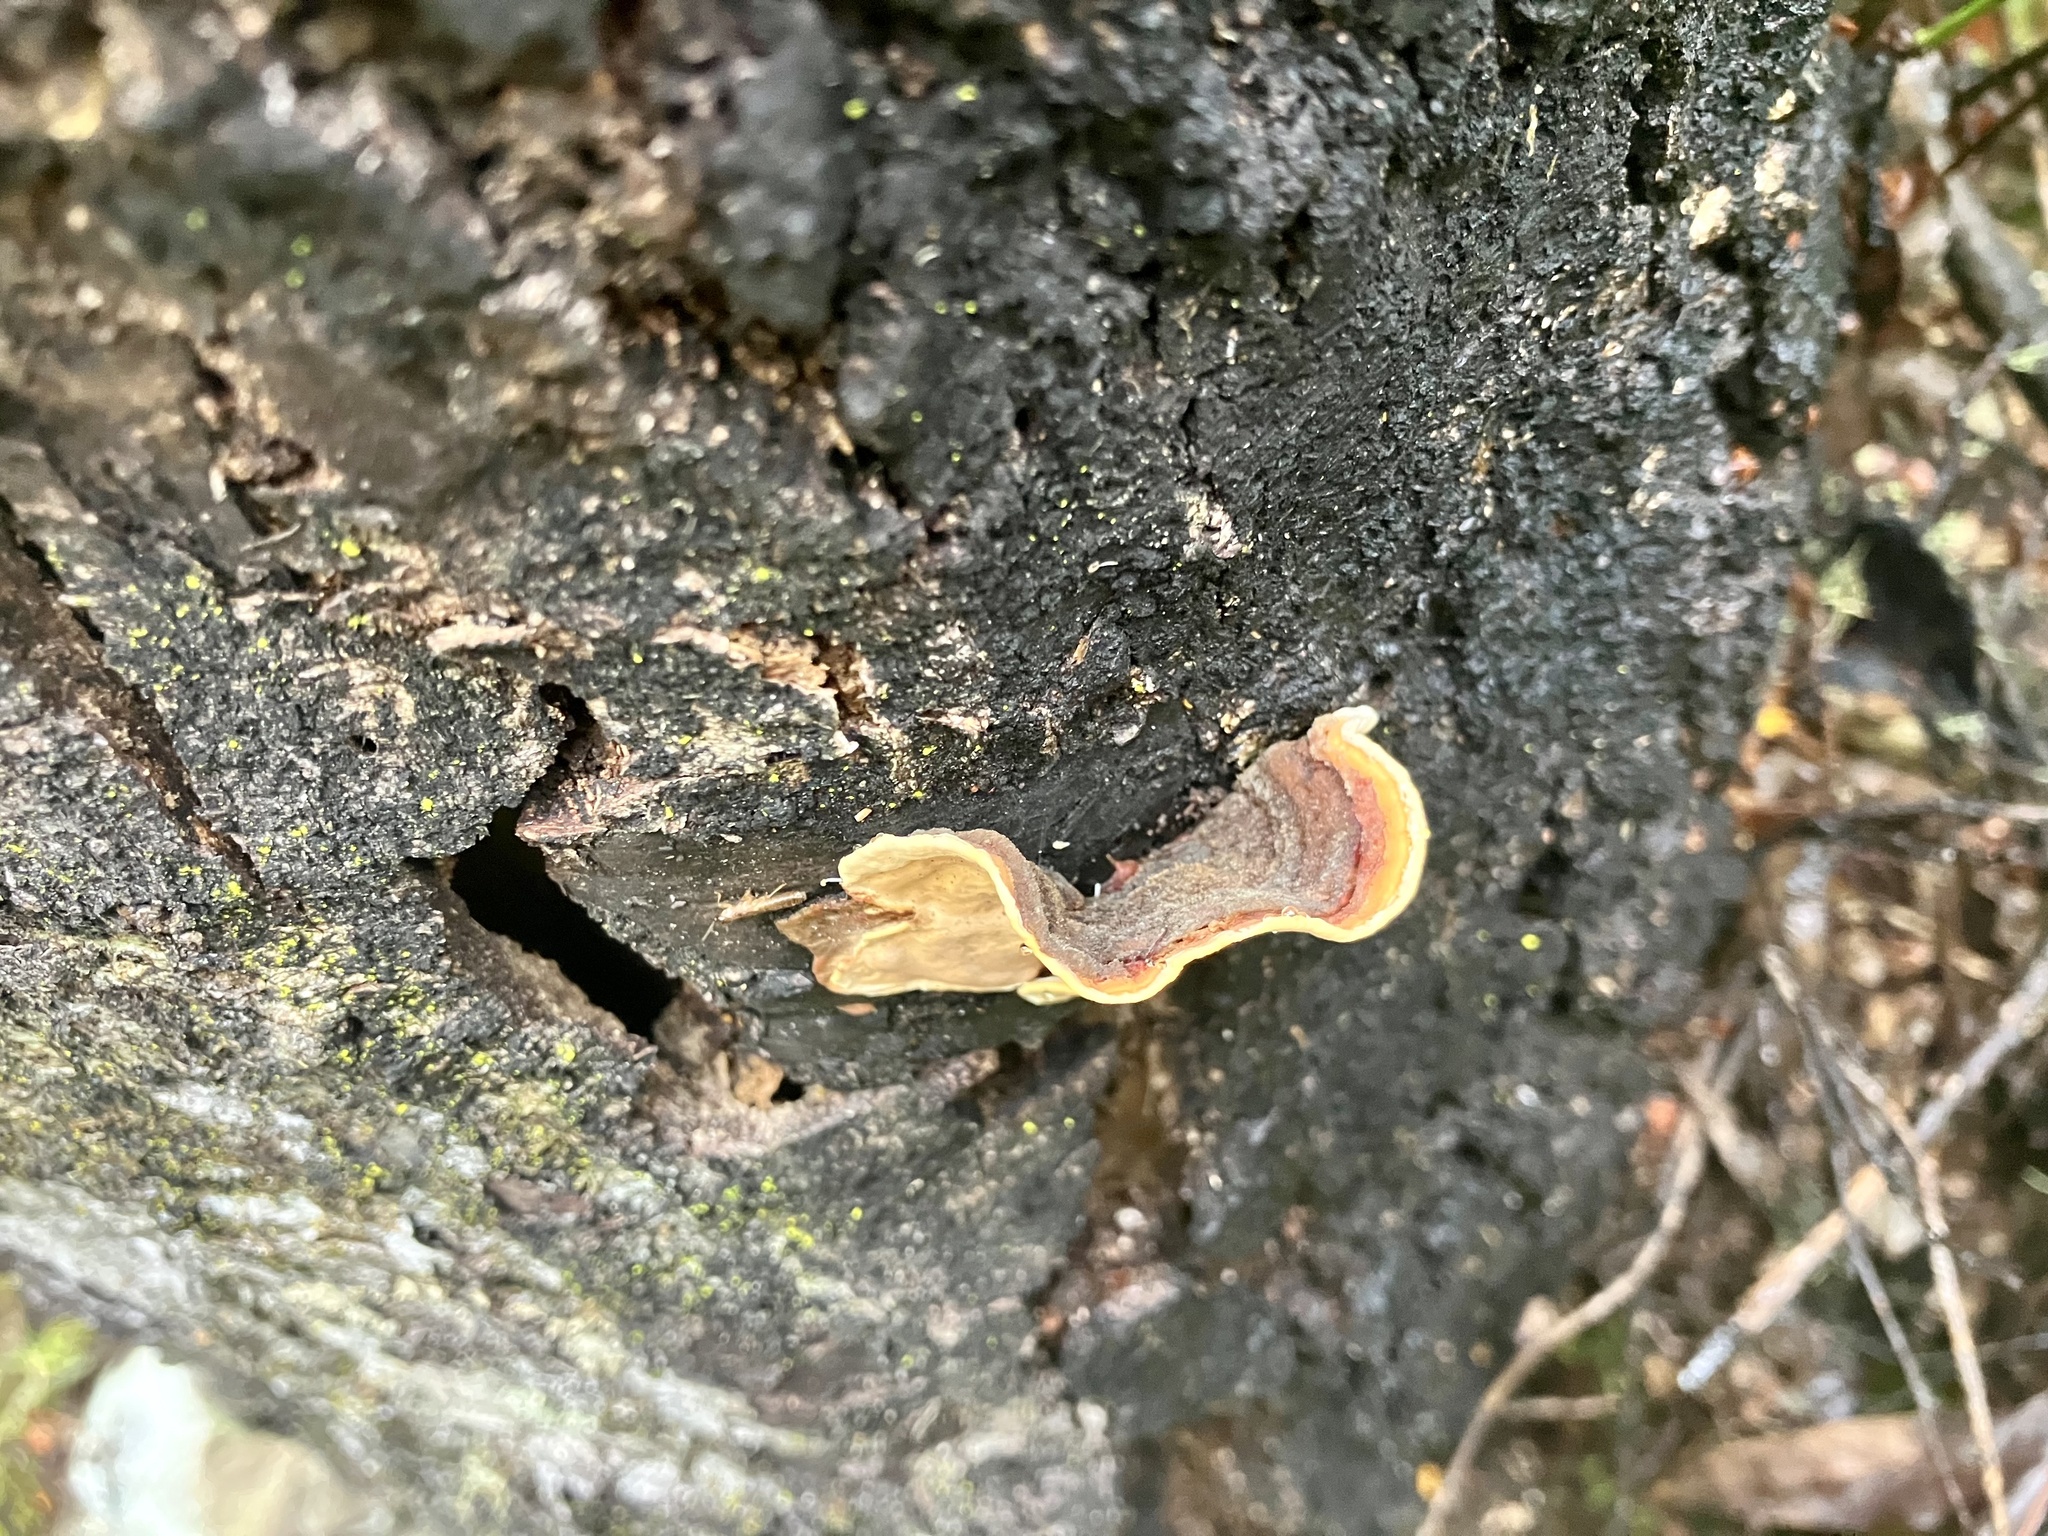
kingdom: Fungi
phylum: Basidiomycota
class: Agaricomycetes
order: Russulales
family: Stereaceae
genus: Stereum
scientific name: Stereum ostrea
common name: False turkeytail
